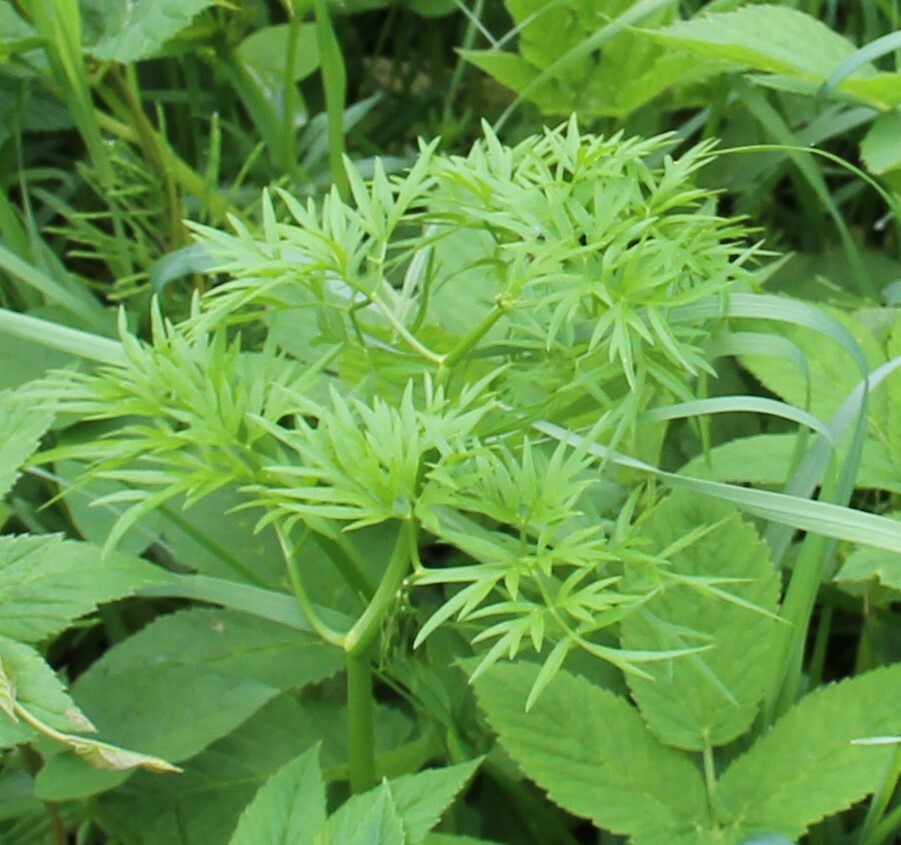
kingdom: Plantae
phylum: Tracheophyta
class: Magnoliopsida
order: Apiales
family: Apiaceae
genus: Cenolophium
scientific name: Cenolophium fischeri
